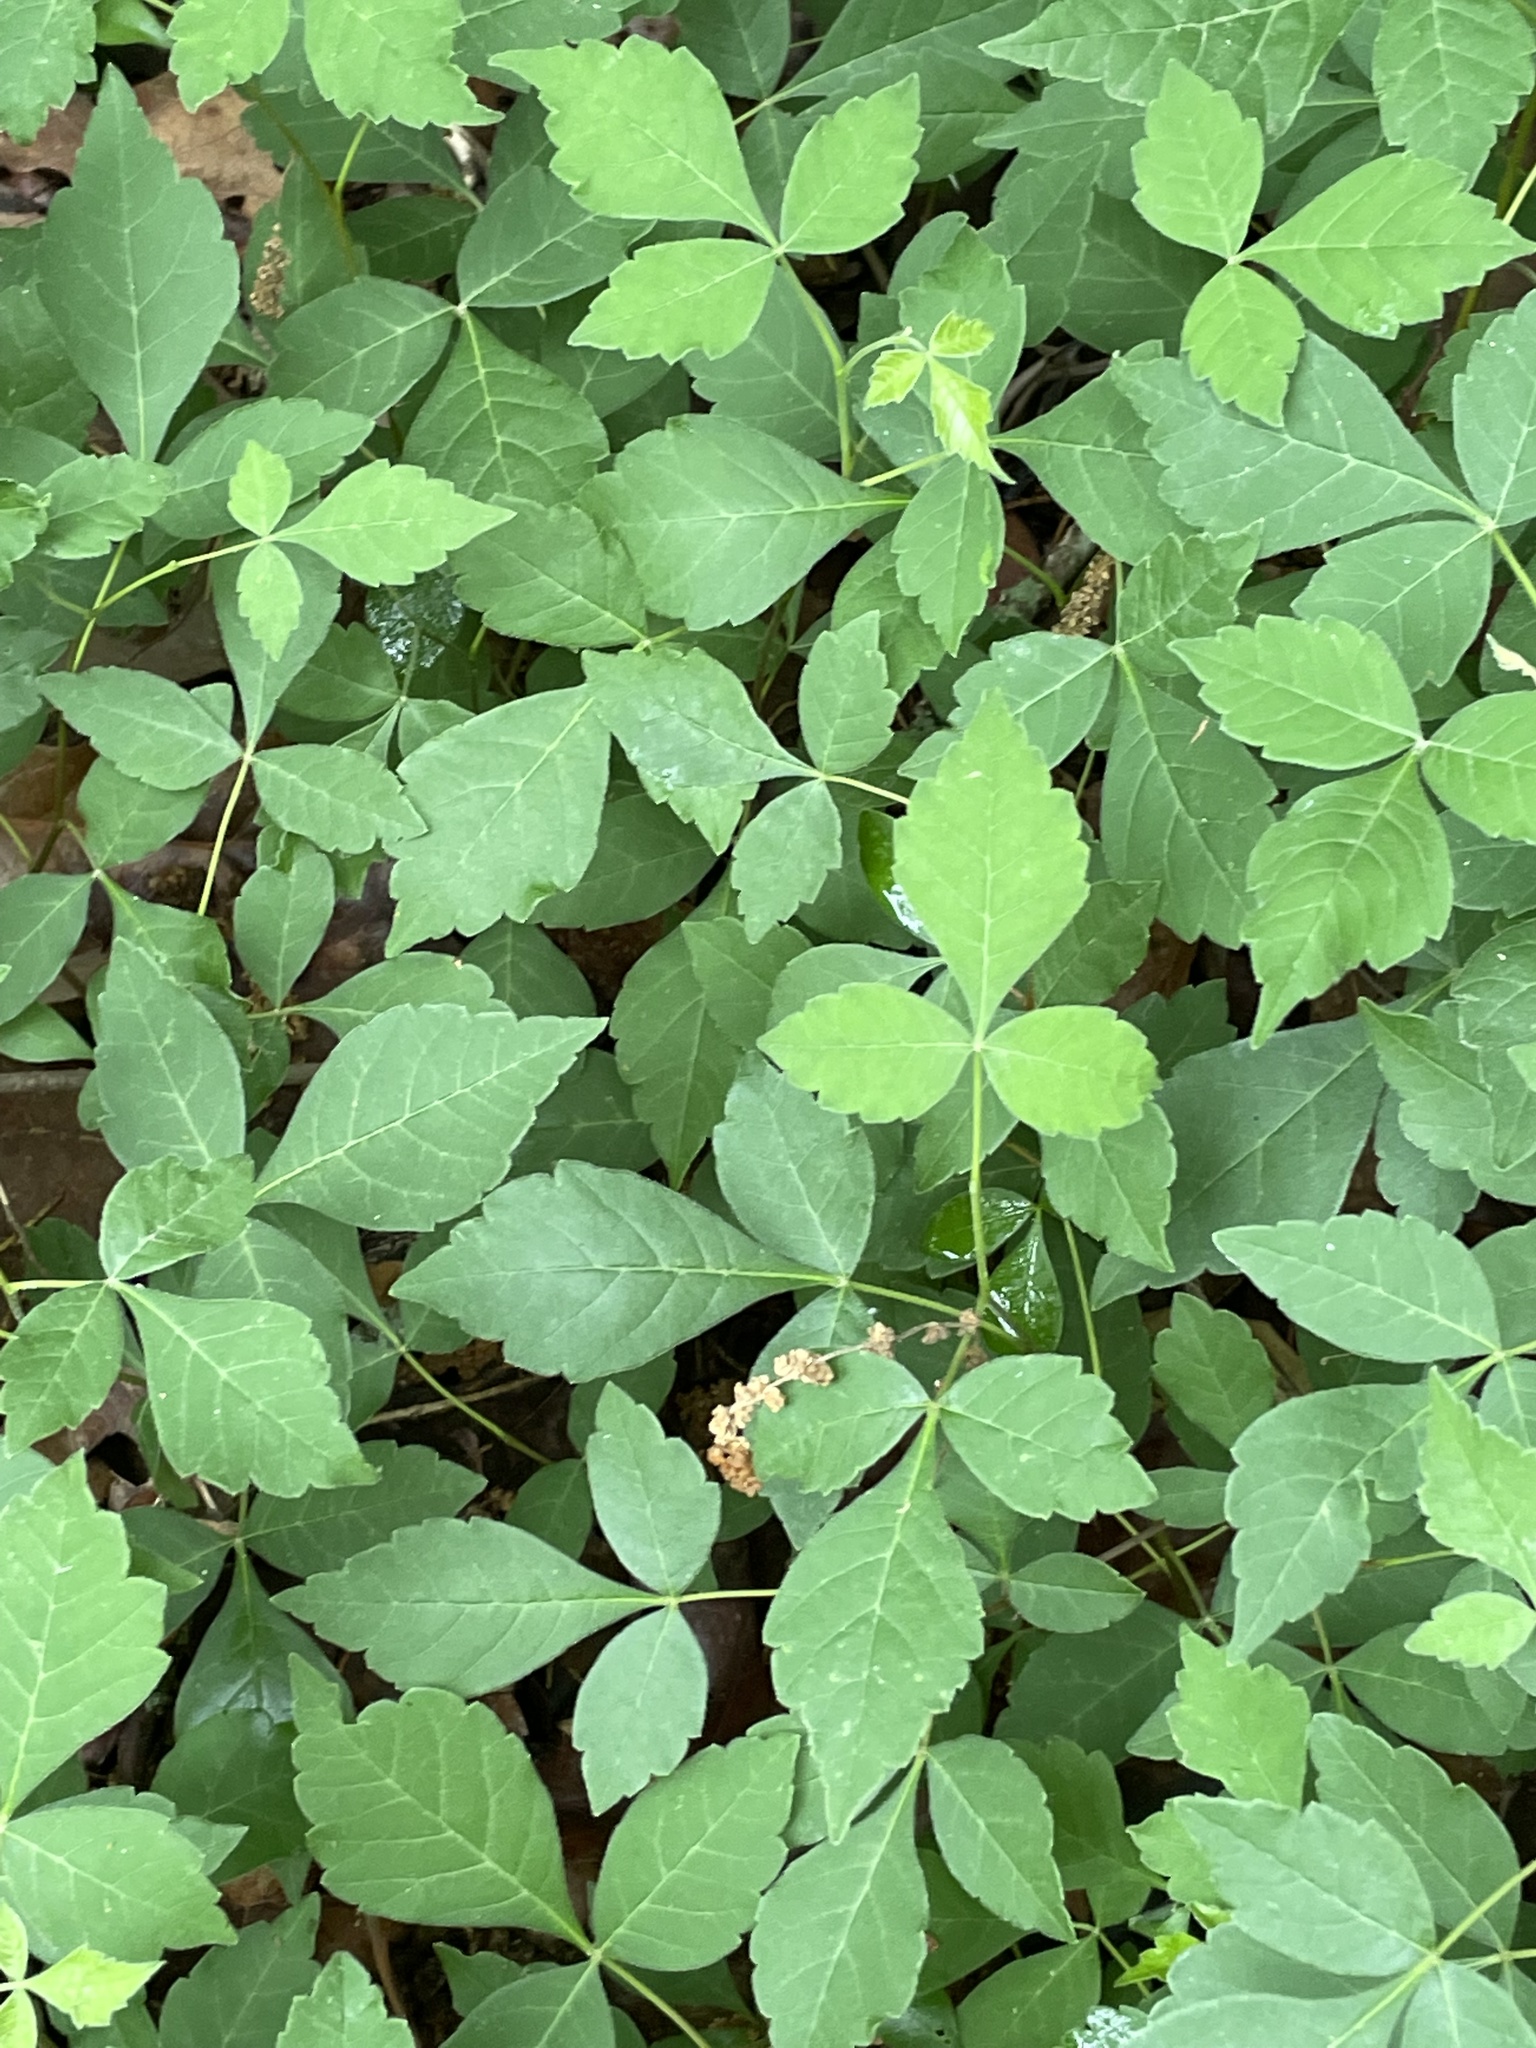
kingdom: Plantae
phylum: Tracheophyta
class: Magnoliopsida
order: Sapindales
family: Anacardiaceae
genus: Rhus
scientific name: Rhus aromatica
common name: Aromatic sumac
